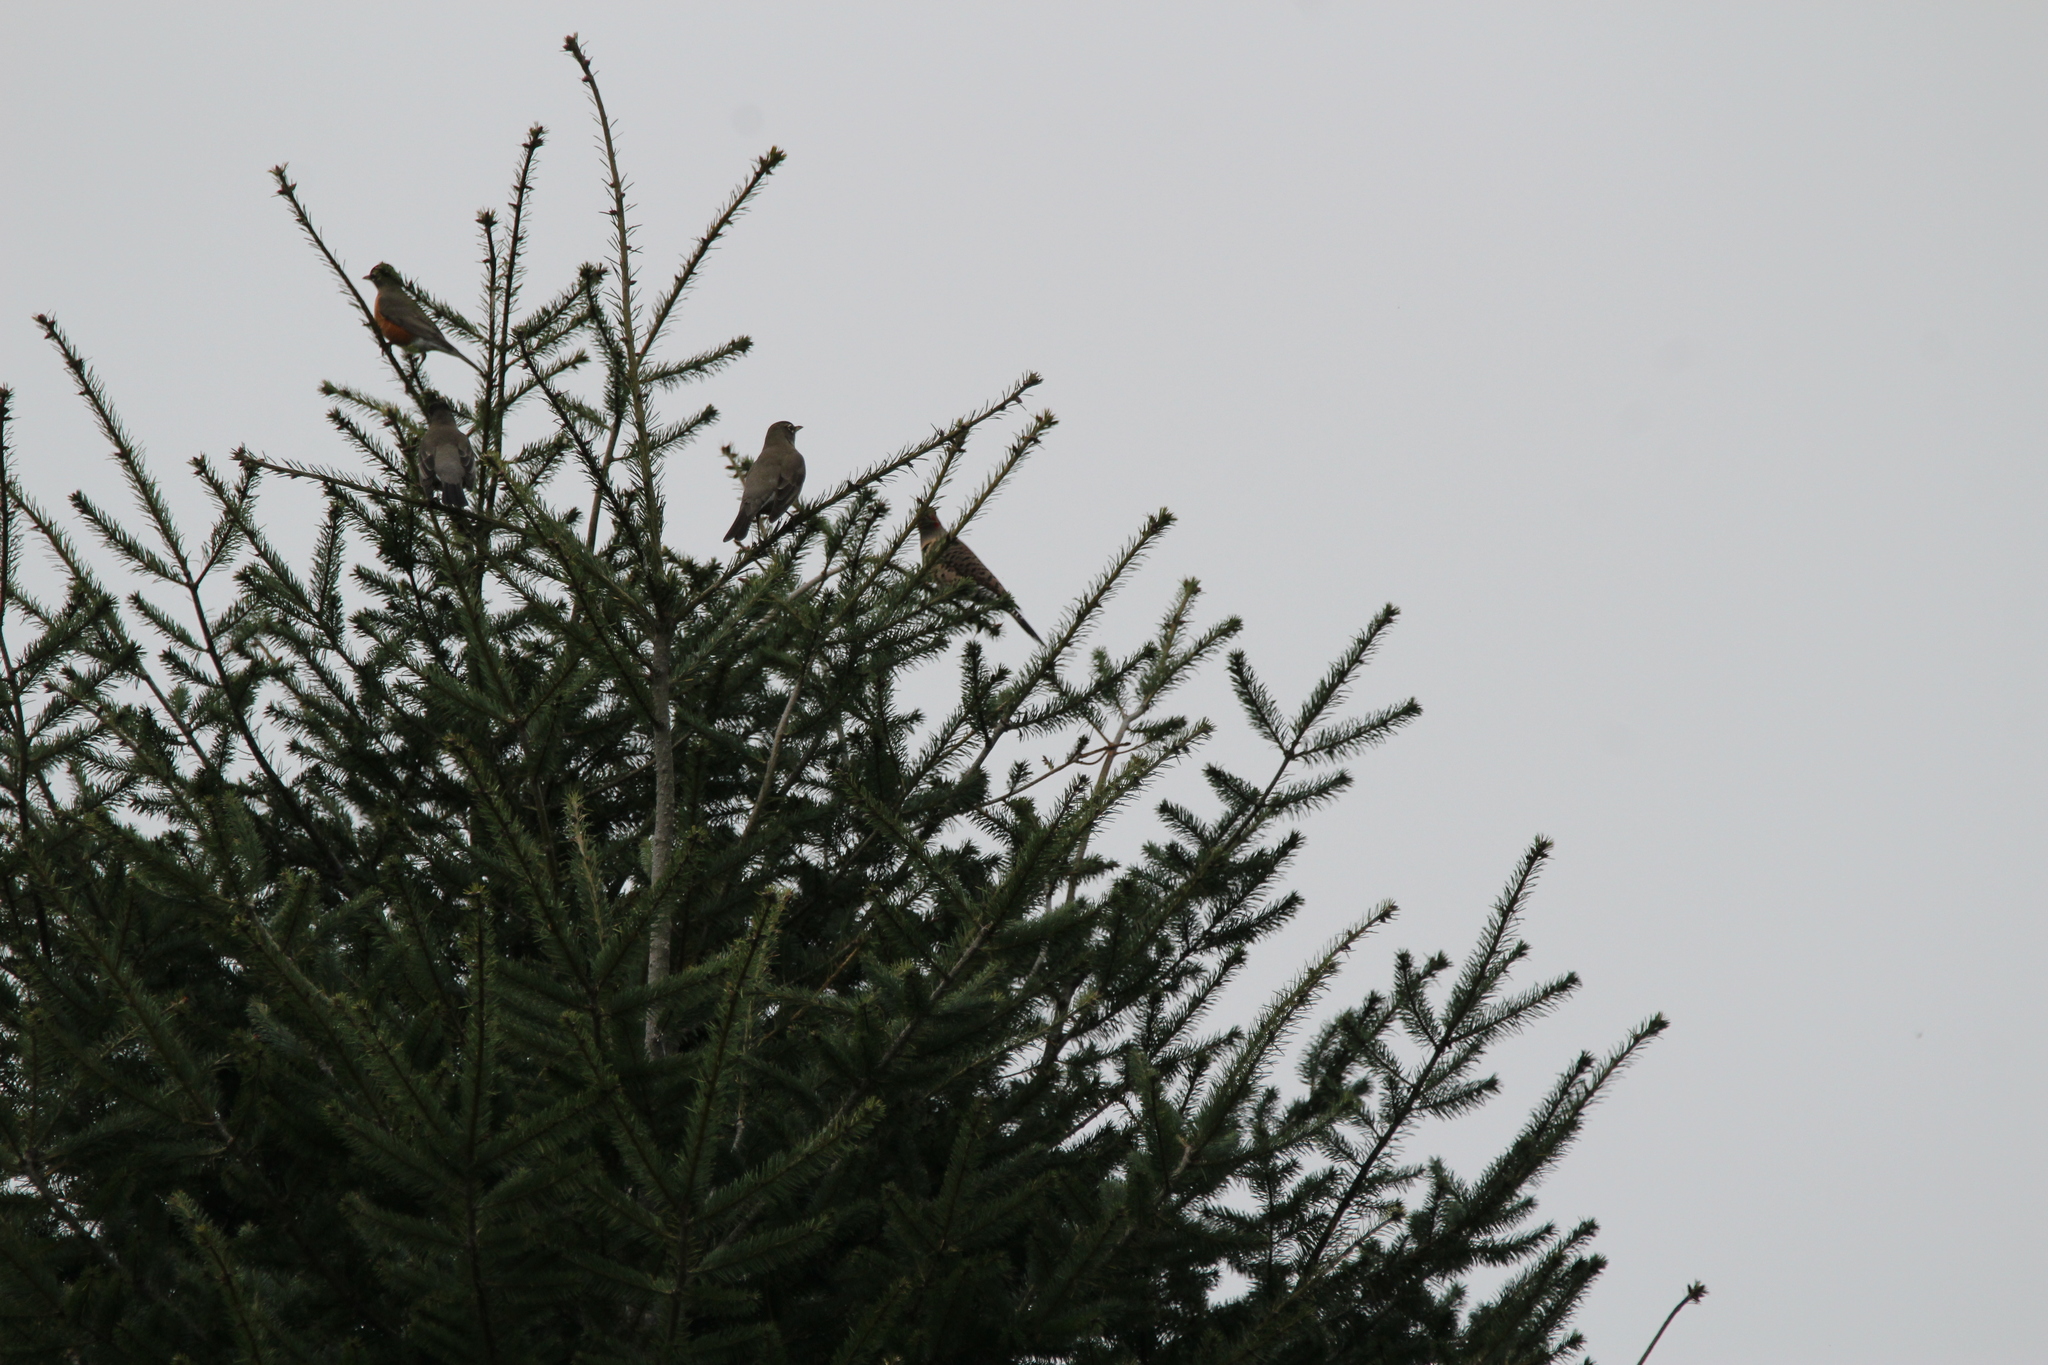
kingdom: Animalia
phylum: Chordata
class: Aves
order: Piciformes
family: Picidae
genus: Colaptes
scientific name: Colaptes auratus
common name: Northern flicker
